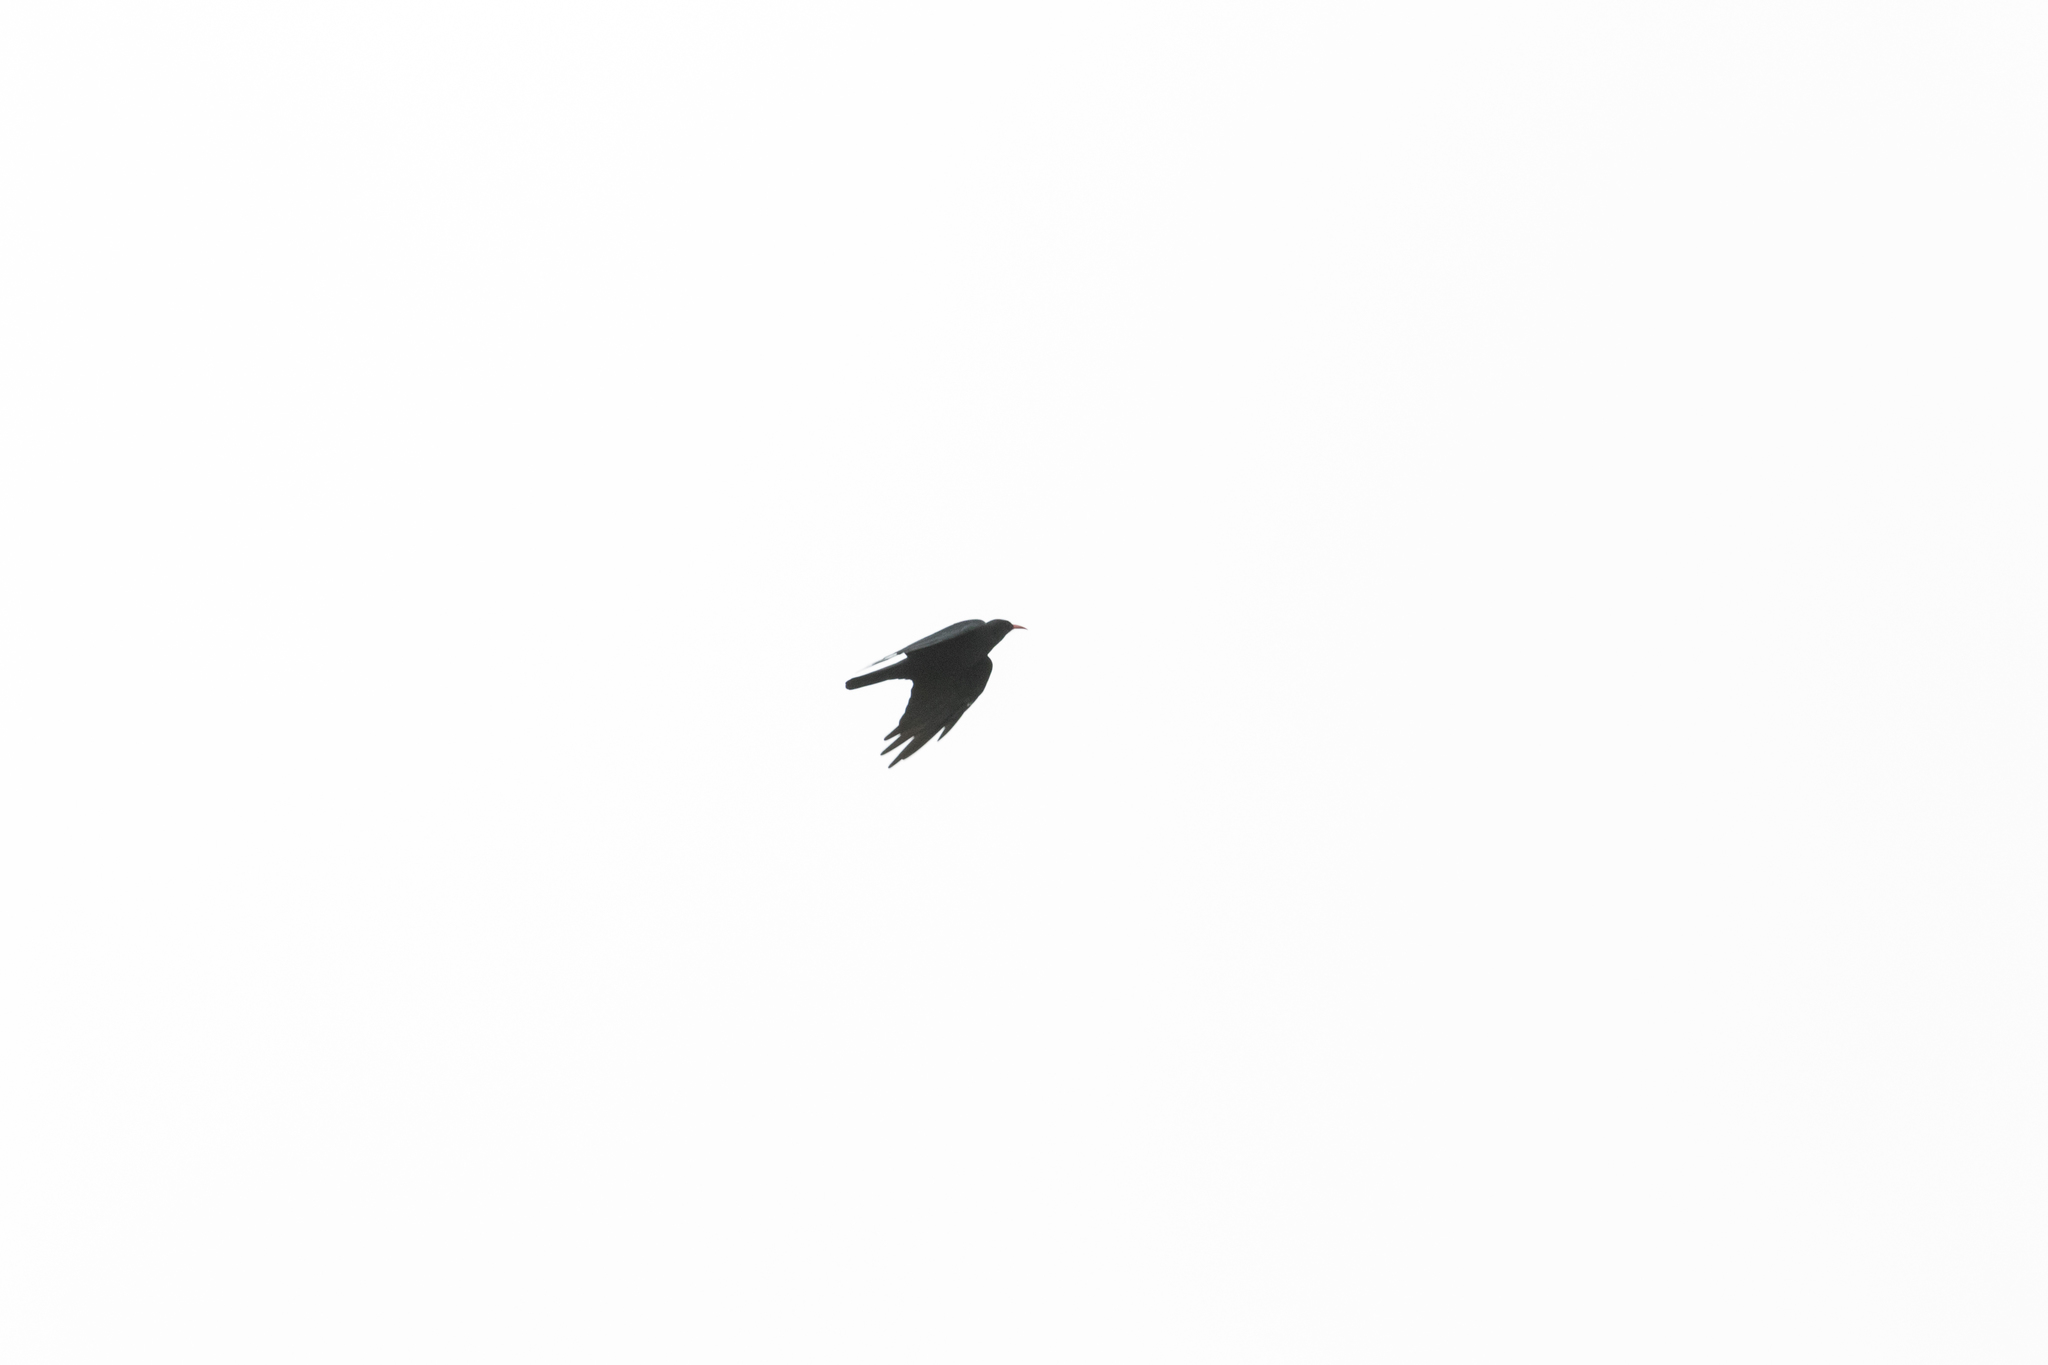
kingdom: Animalia
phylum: Chordata
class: Aves
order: Passeriformes
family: Corvidae
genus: Pyrrhocorax
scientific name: Pyrrhocorax pyrrhocorax
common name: Red-billed chough
